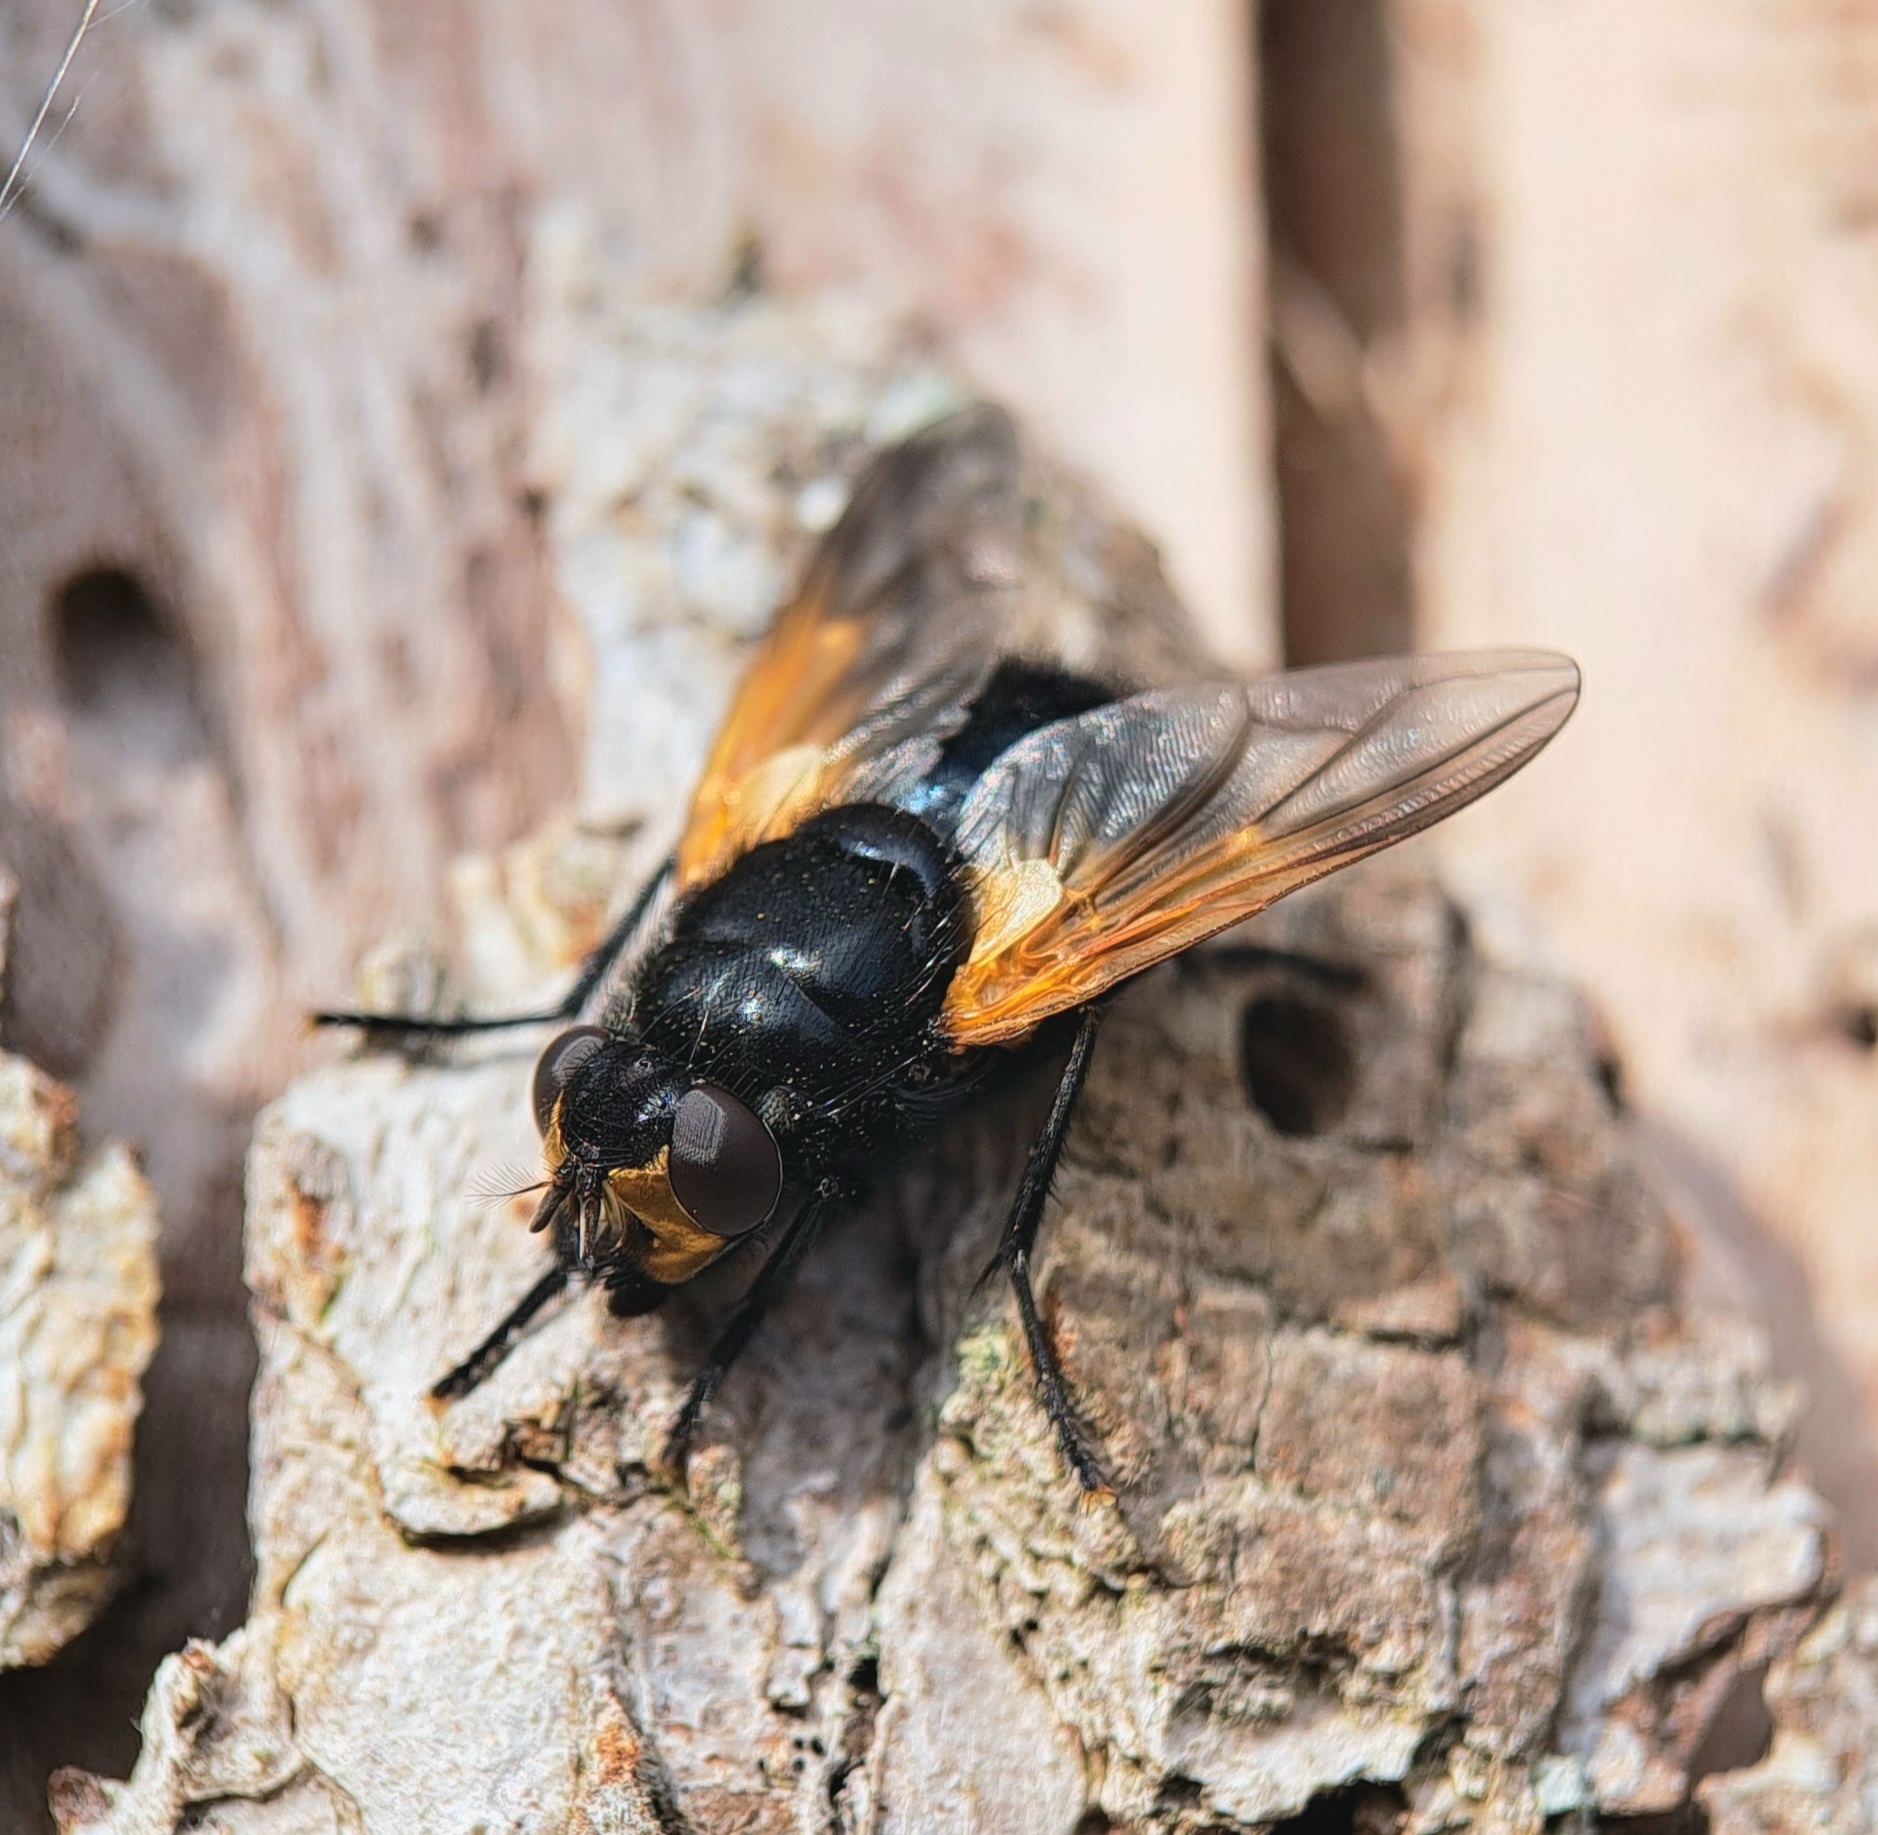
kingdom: Animalia
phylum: Arthropoda
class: Insecta
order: Diptera
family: Muscidae
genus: Mesembrina
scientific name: Mesembrina meridiana
